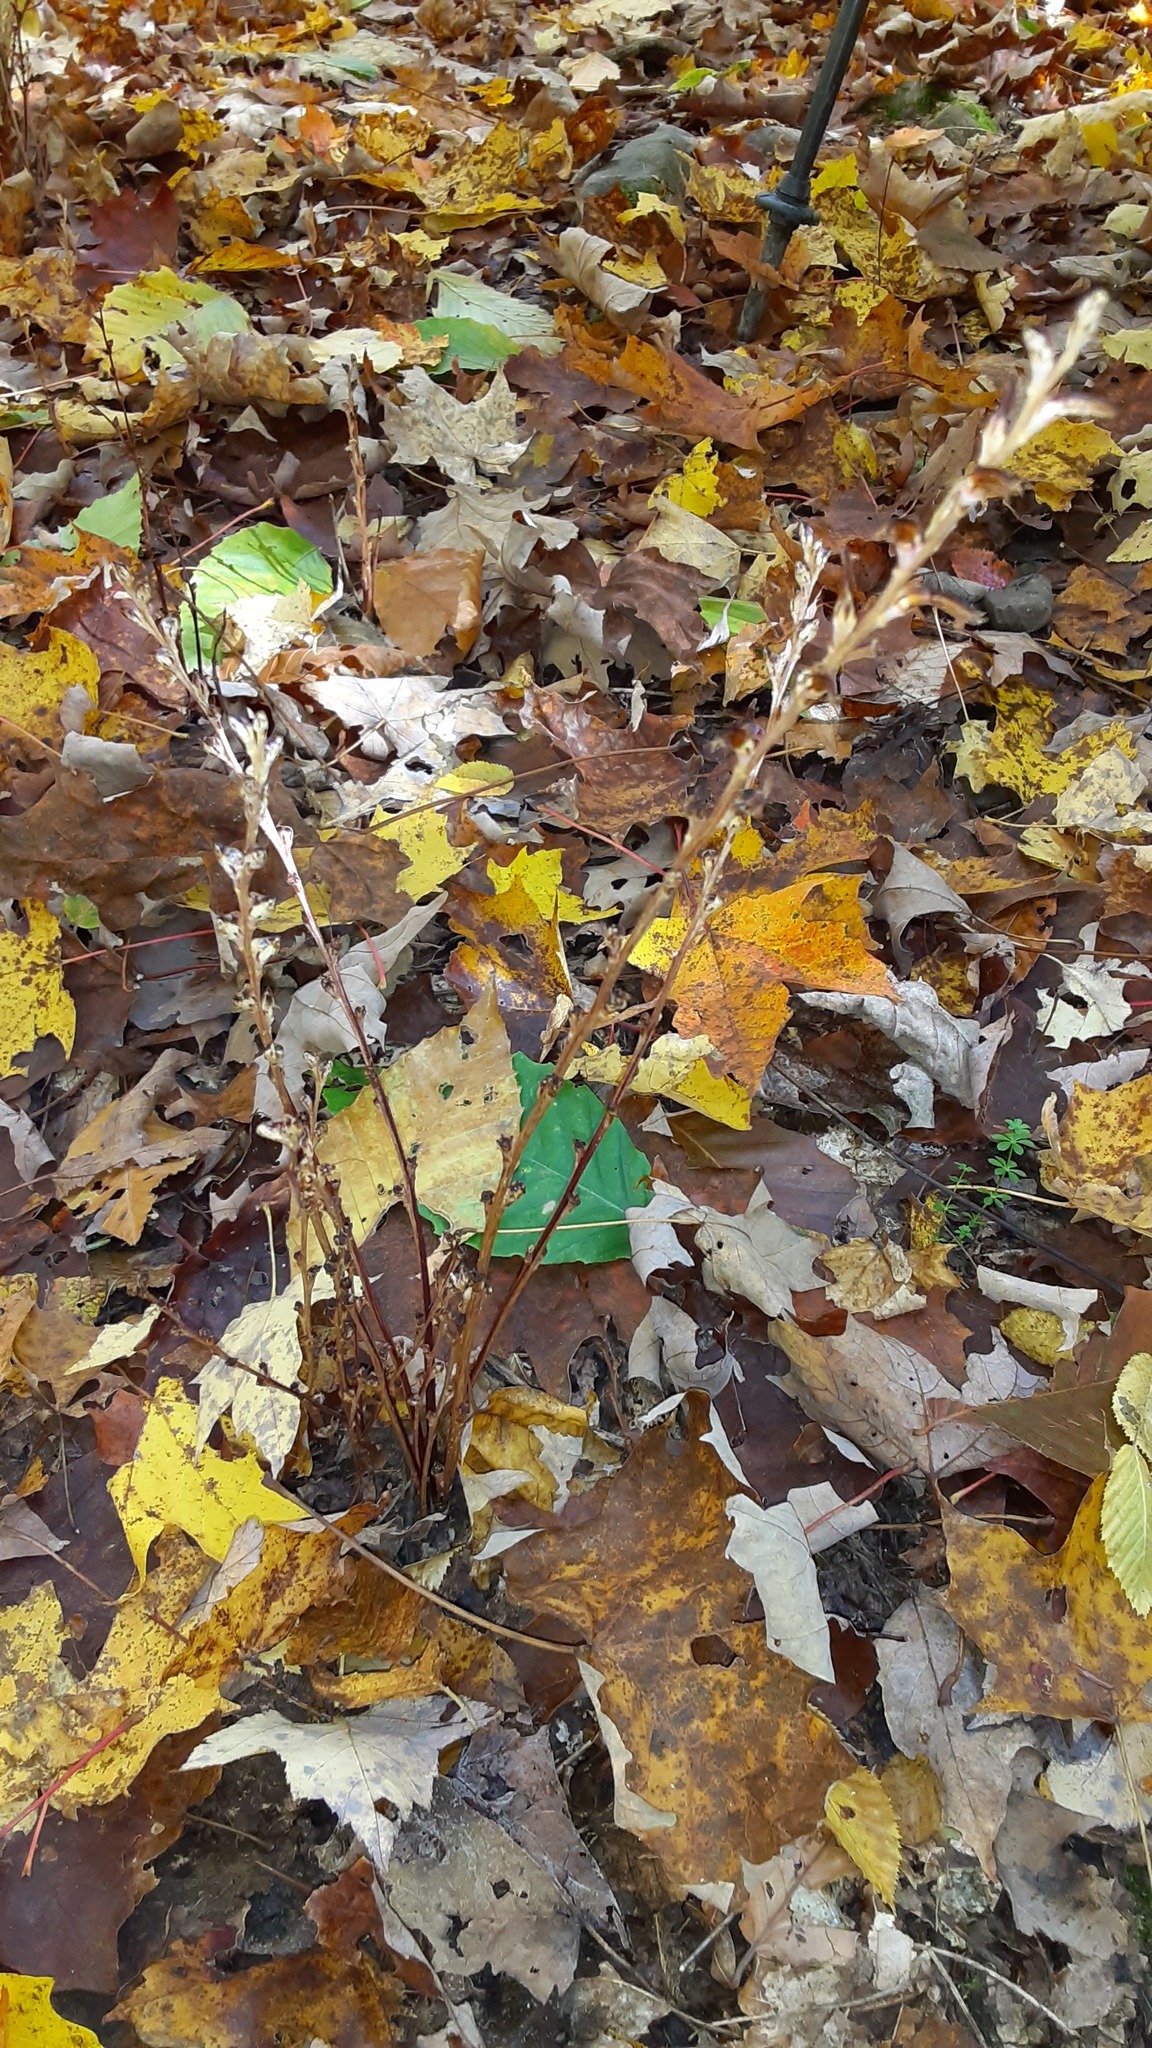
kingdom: Plantae
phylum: Tracheophyta
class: Magnoliopsida
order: Lamiales
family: Orobanchaceae
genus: Epifagus
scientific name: Epifagus virginiana
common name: Beechdrops
